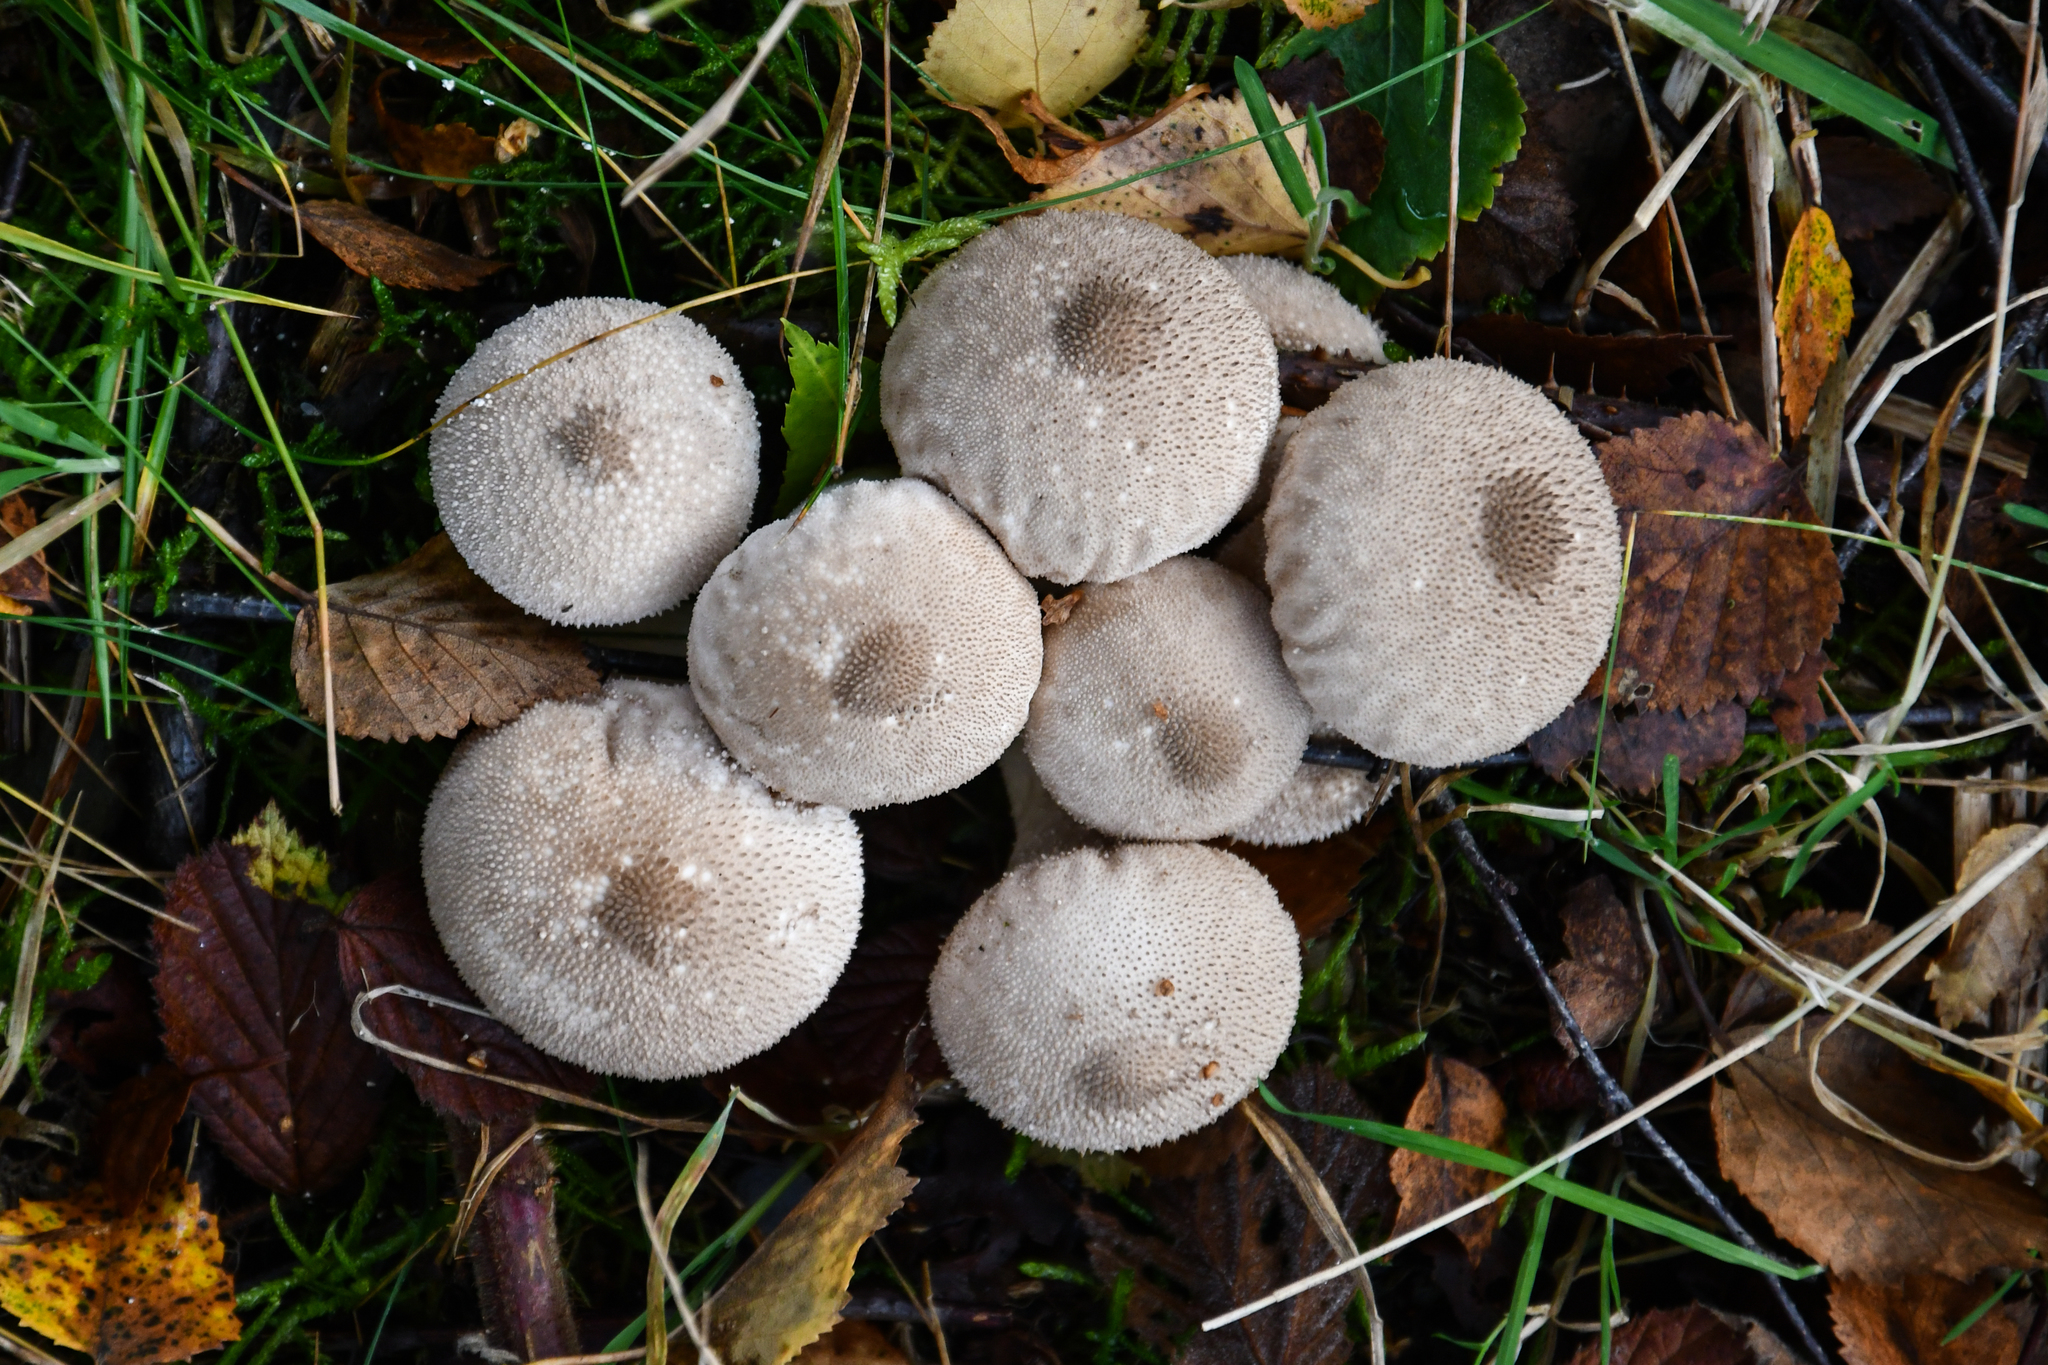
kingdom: Fungi
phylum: Basidiomycota
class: Agaricomycetes
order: Agaricales
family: Lycoperdaceae
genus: Lycoperdon
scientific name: Lycoperdon perlatum
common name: Common puffball
